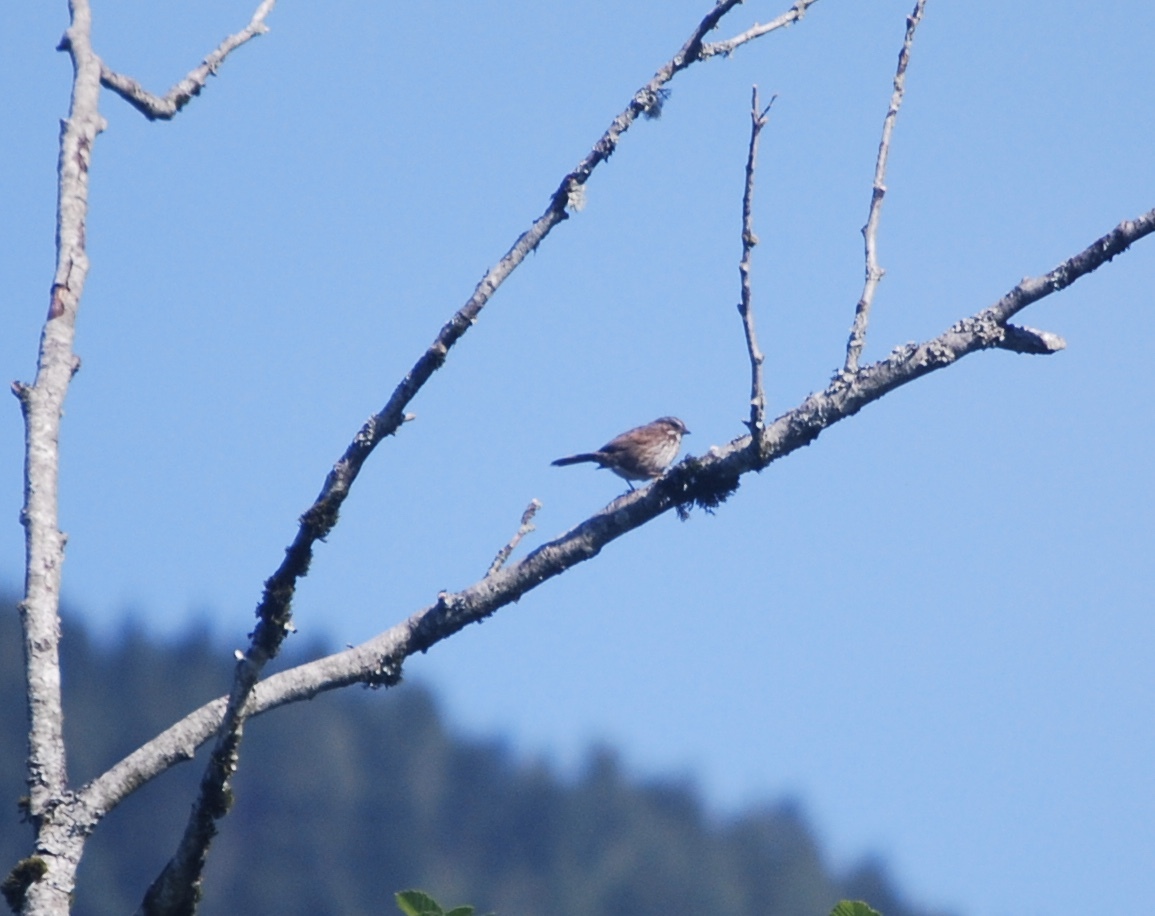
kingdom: Animalia
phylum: Chordata
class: Aves
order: Passeriformes
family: Passerellidae
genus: Melospiza
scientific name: Melospiza melodia
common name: Song sparrow
